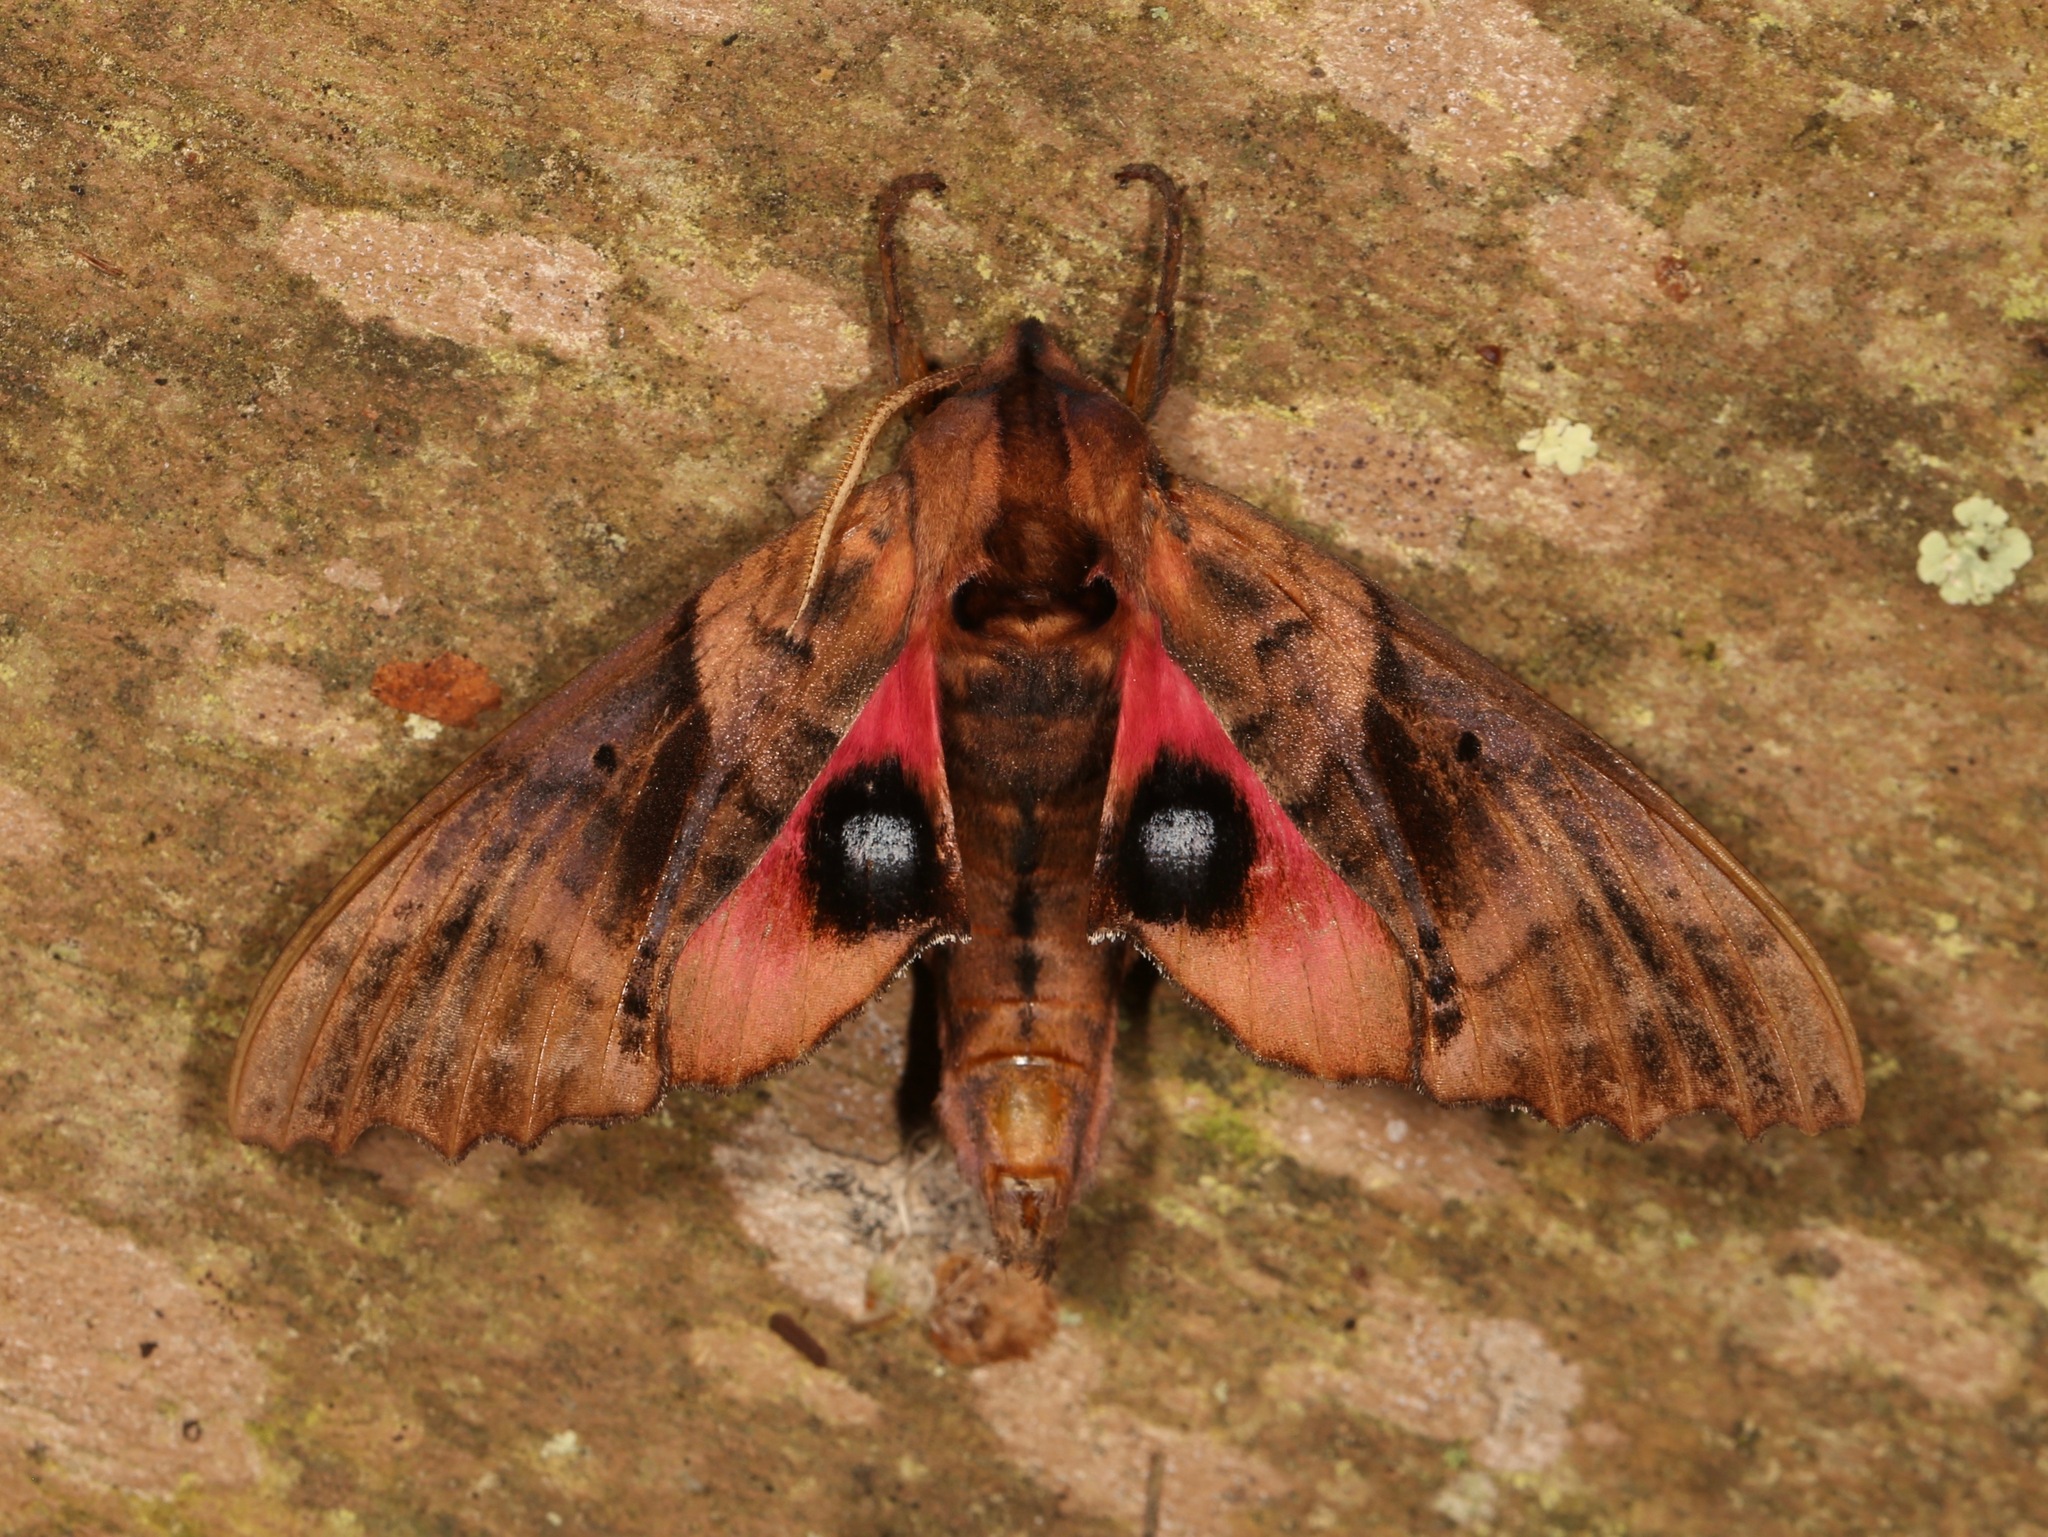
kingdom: Animalia
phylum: Arthropoda
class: Insecta
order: Lepidoptera
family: Sphingidae
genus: Paonias
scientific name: Paonias excaecata
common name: Blind-eyed sphinx
